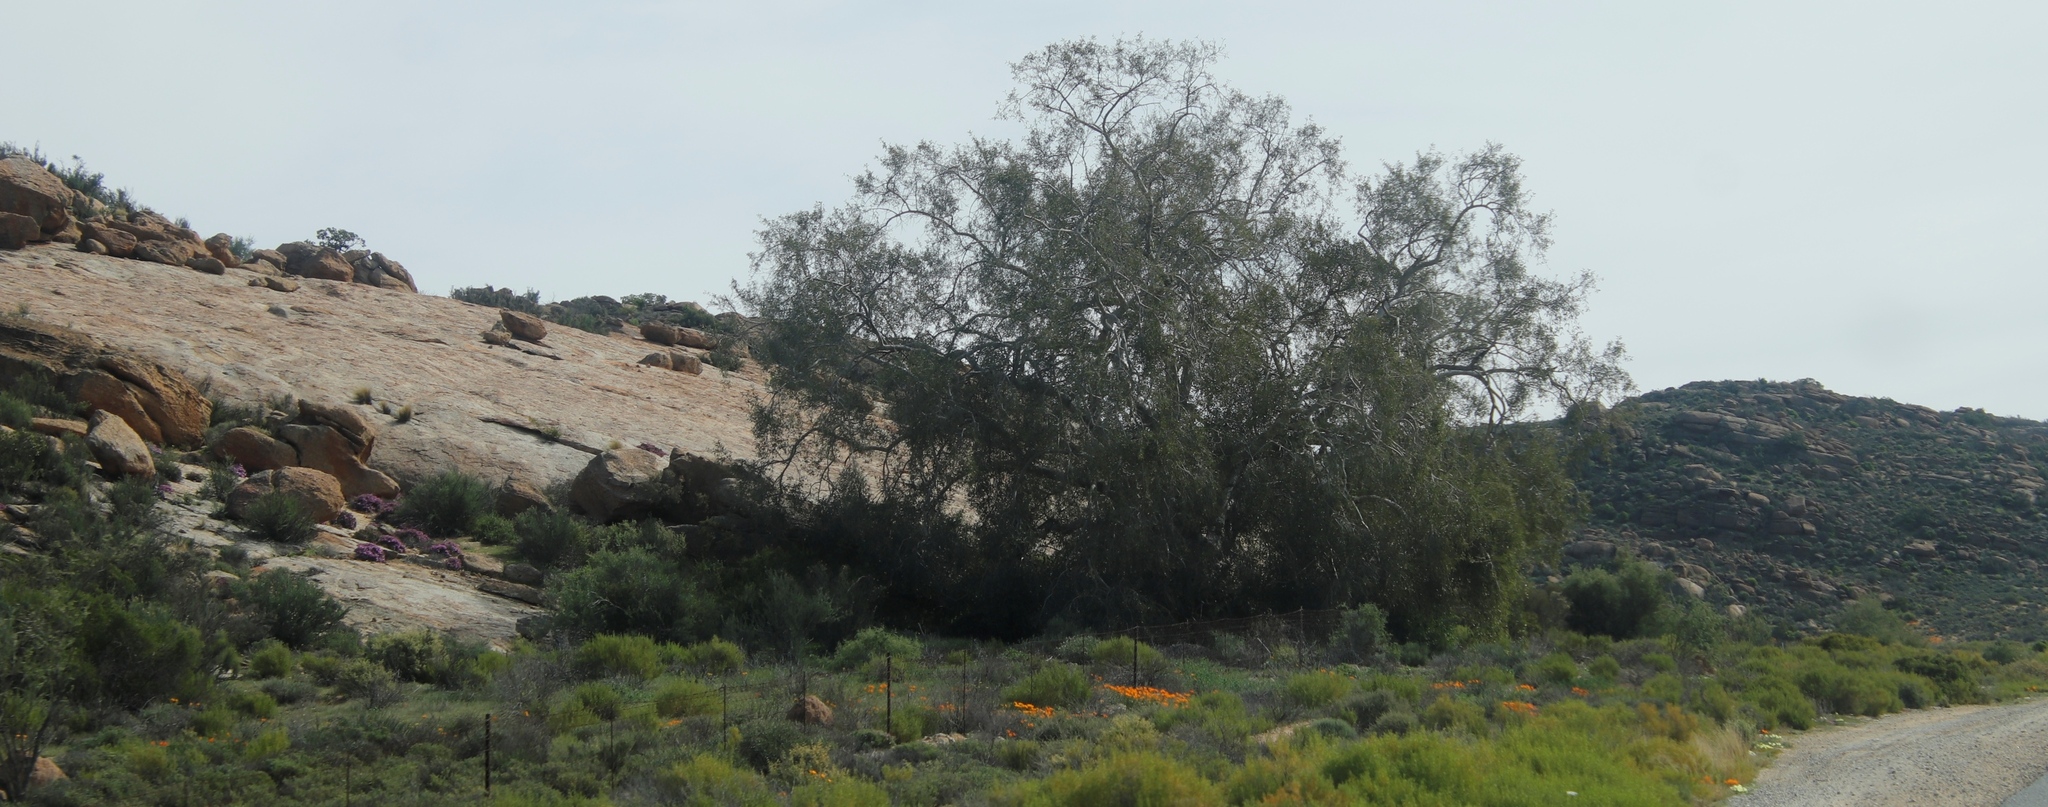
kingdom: Plantae
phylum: Tracheophyta
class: Magnoliopsida
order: Rosales
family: Moraceae
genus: Ficus
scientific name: Ficus cordata
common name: Namaqua rock fig
